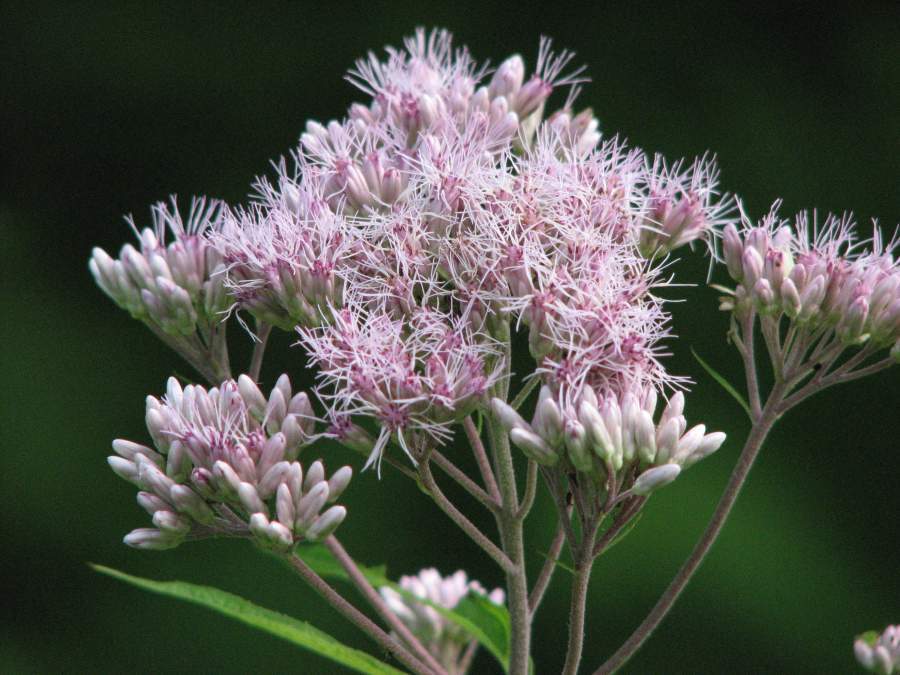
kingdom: Plantae
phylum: Tracheophyta
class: Magnoliopsida
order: Asterales
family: Asteraceae
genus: Eutrochium
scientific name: Eutrochium maculatum
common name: Spotted joe pye weed
